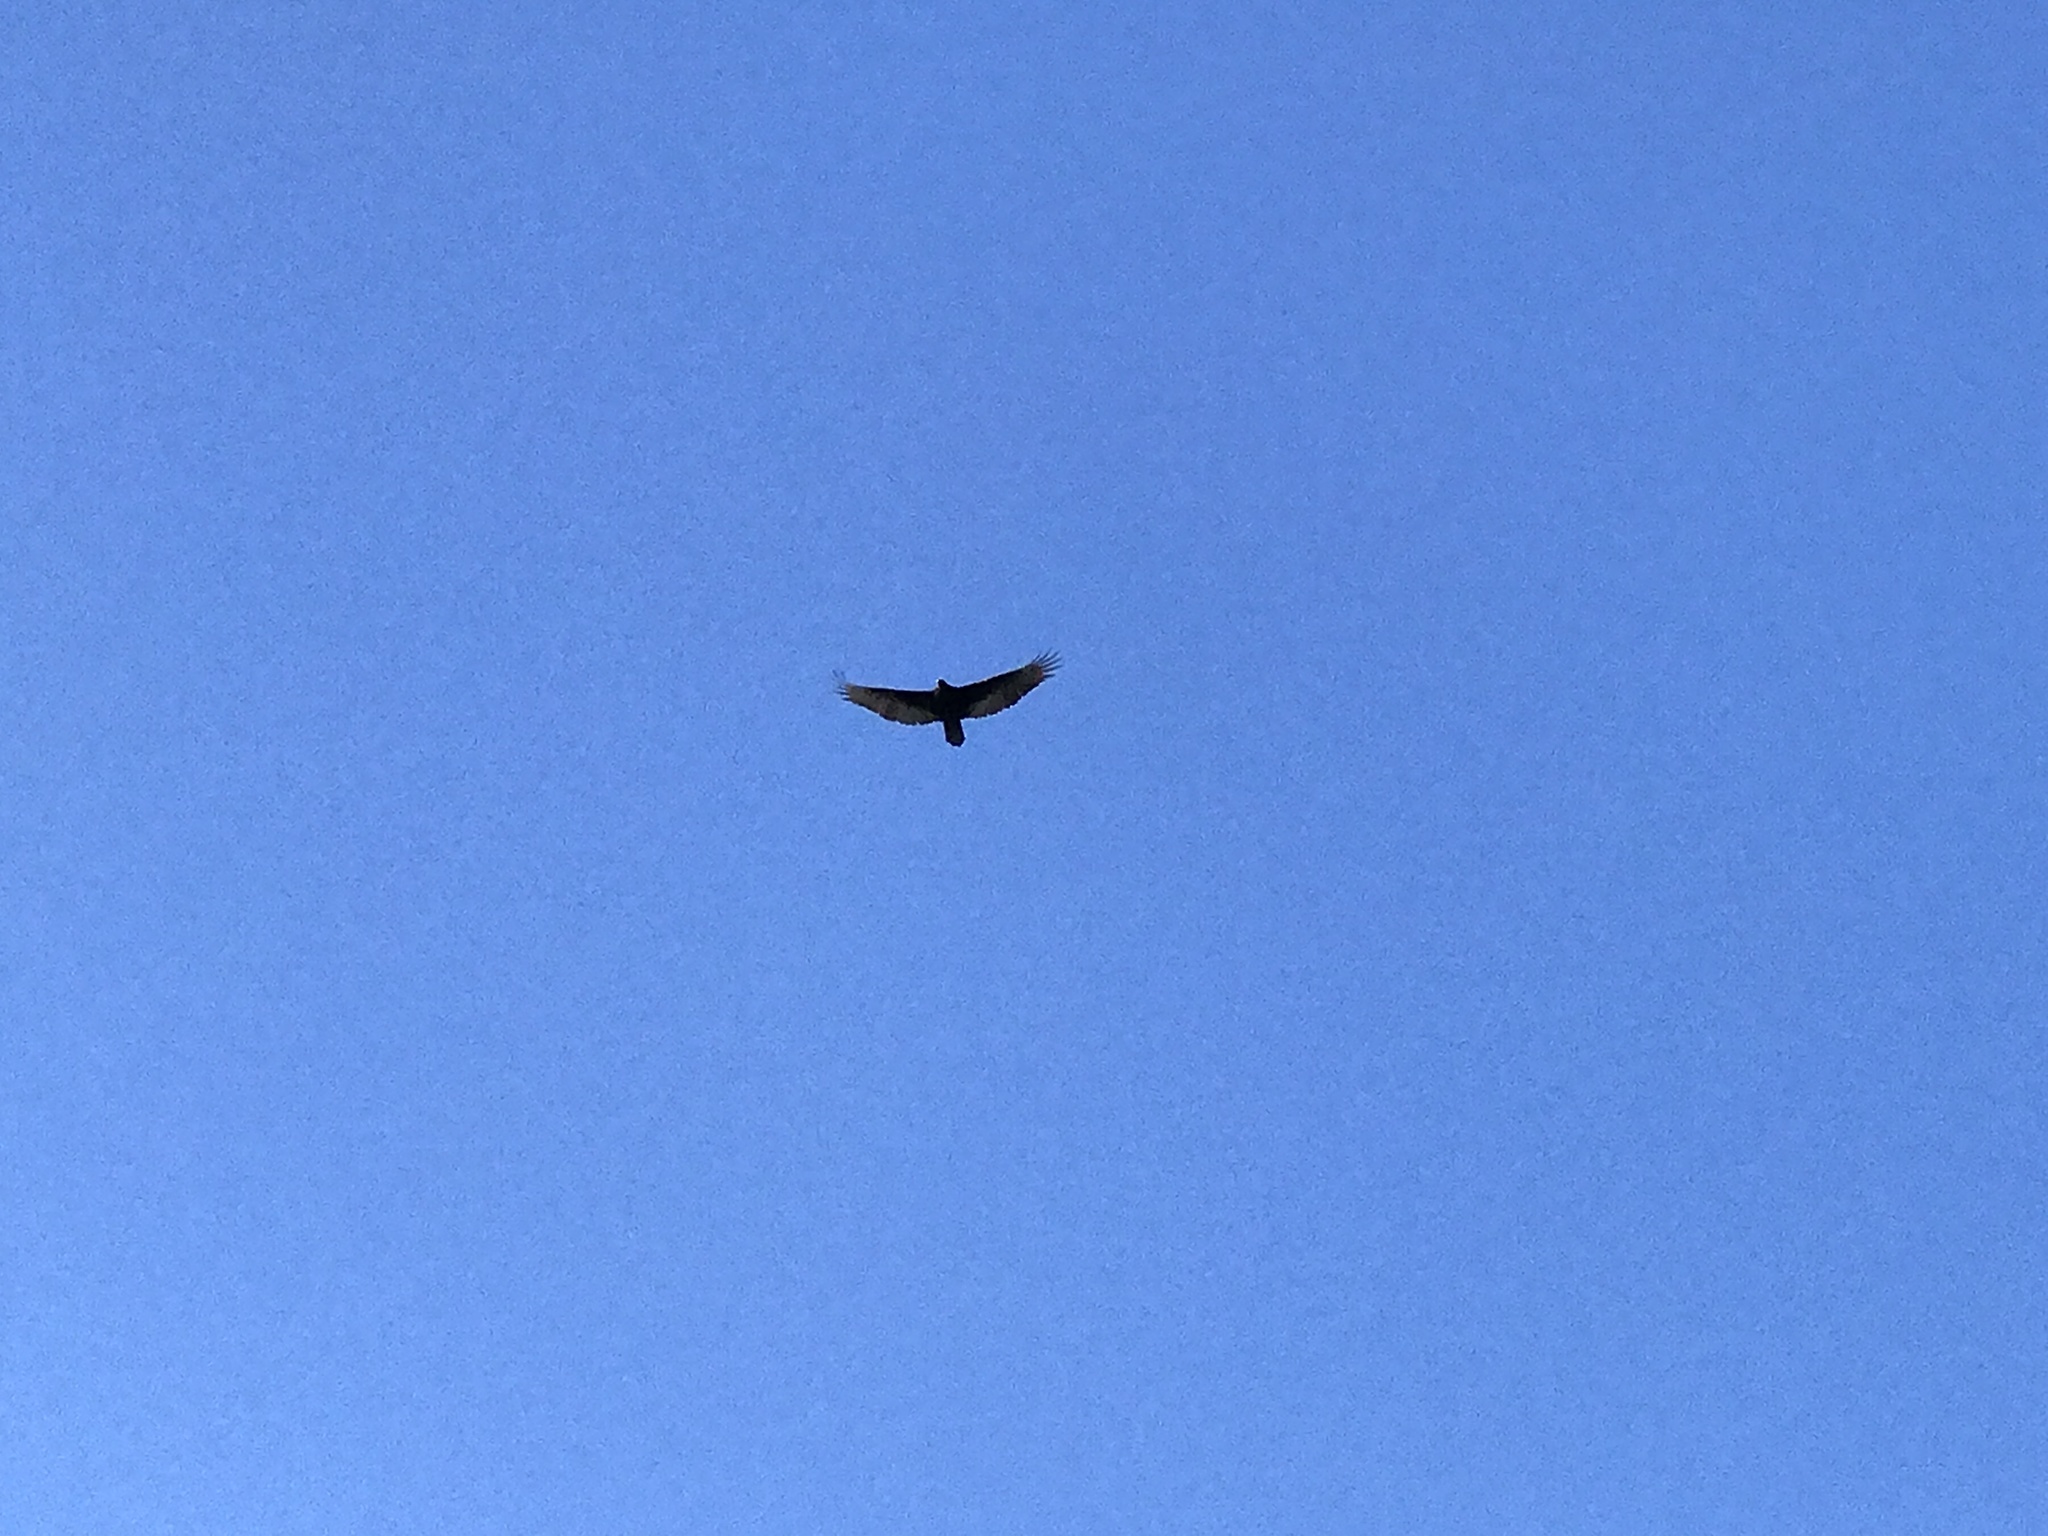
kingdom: Animalia
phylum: Chordata
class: Aves
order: Accipitriformes
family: Cathartidae
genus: Cathartes
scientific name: Cathartes aura
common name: Turkey vulture
